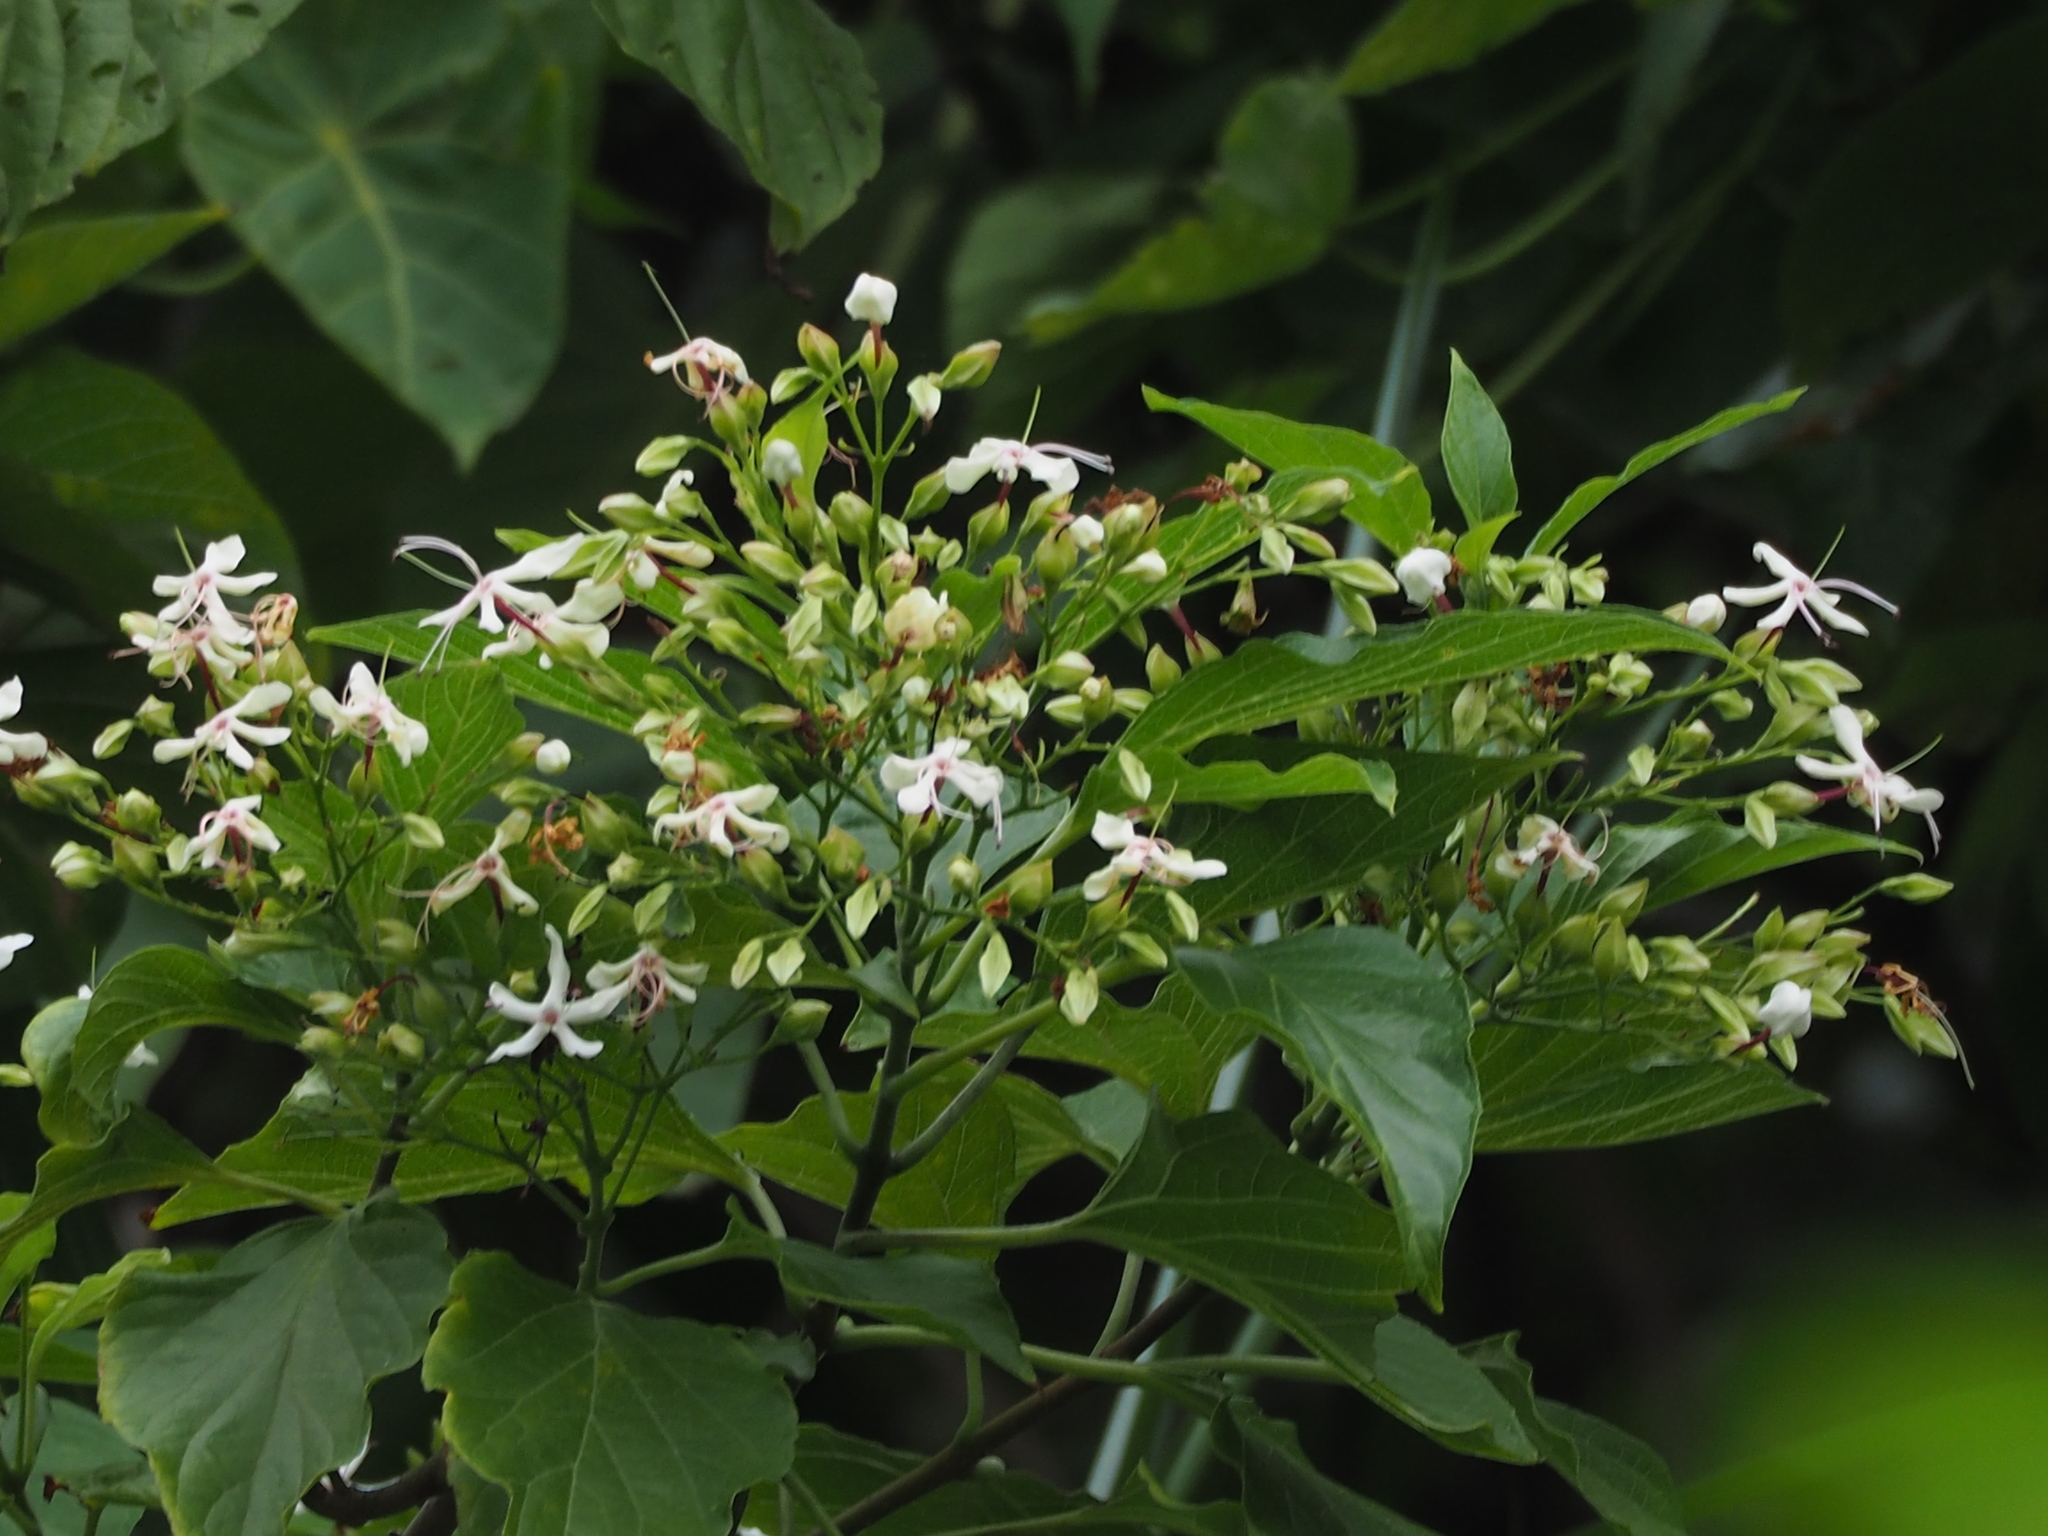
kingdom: Plantae
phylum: Tracheophyta
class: Magnoliopsida
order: Lamiales
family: Lamiaceae
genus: Clerodendrum
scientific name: Clerodendrum trichotomum
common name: Harlequin glorybower
